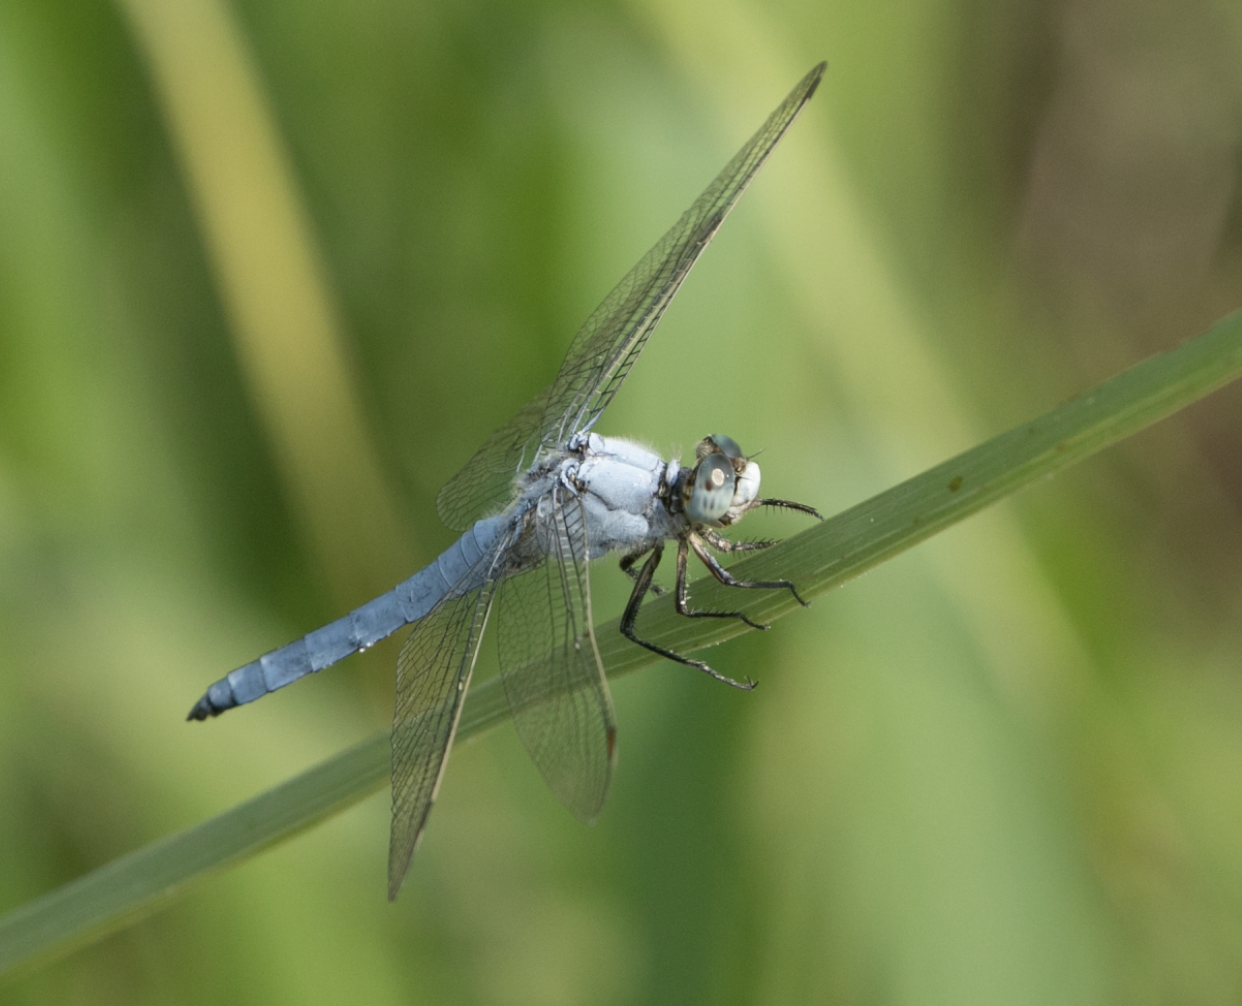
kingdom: Animalia
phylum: Arthropoda
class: Insecta
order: Odonata
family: Libellulidae
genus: Orthetrum
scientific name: Orthetrum brunneum
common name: Southern skimmer
